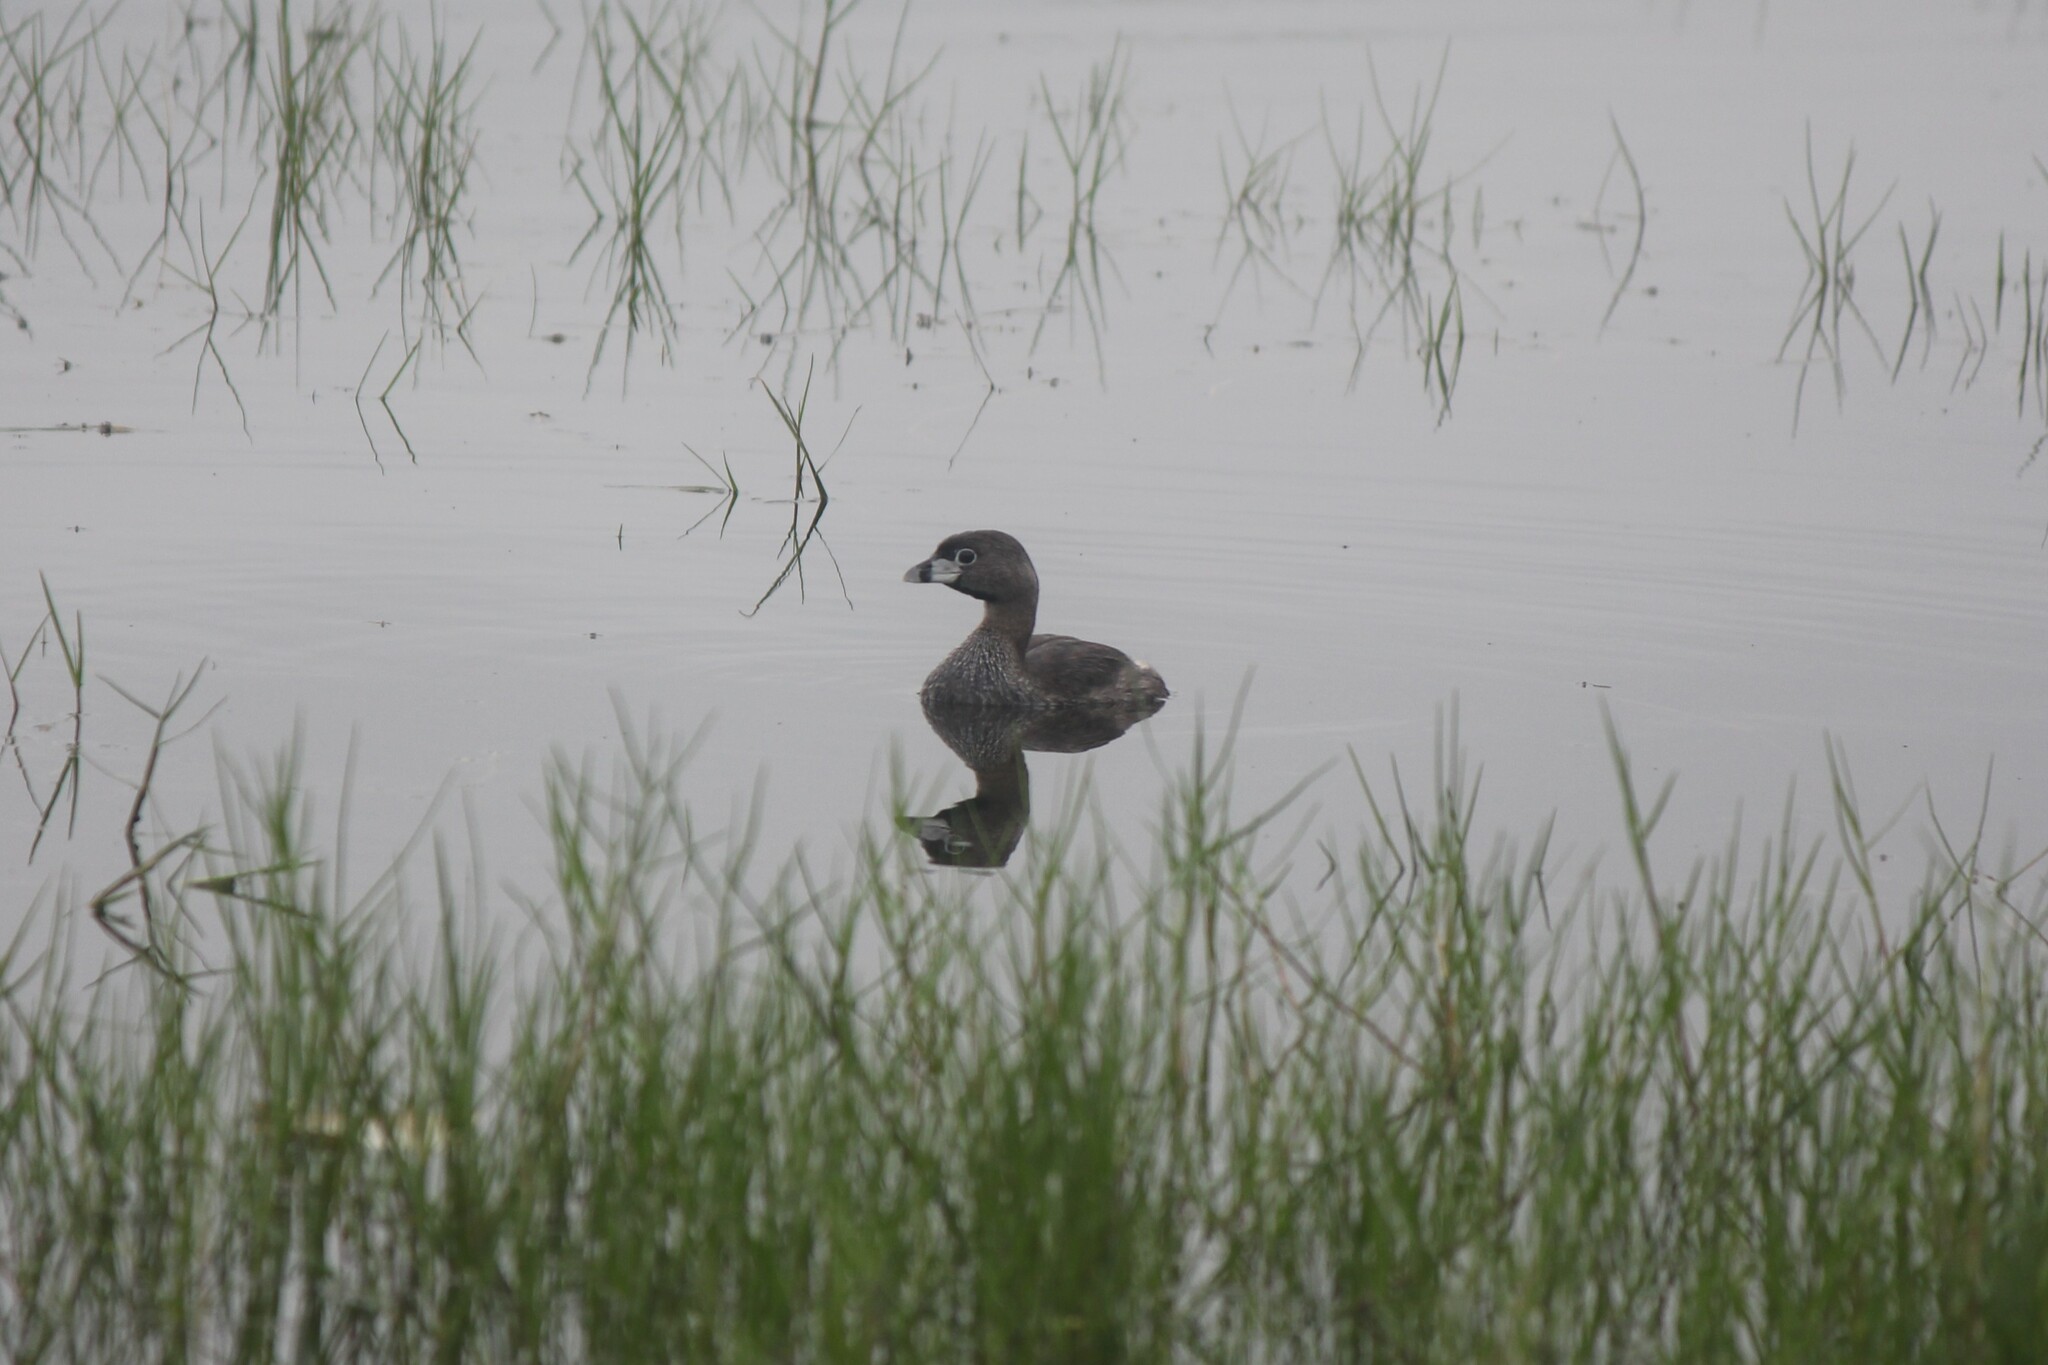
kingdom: Animalia
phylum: Chordata
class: Aves
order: Podicipediformes
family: Podicipedidae
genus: Podilymbus
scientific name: Podilymbus podiceps
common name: Pied-billed grebe
